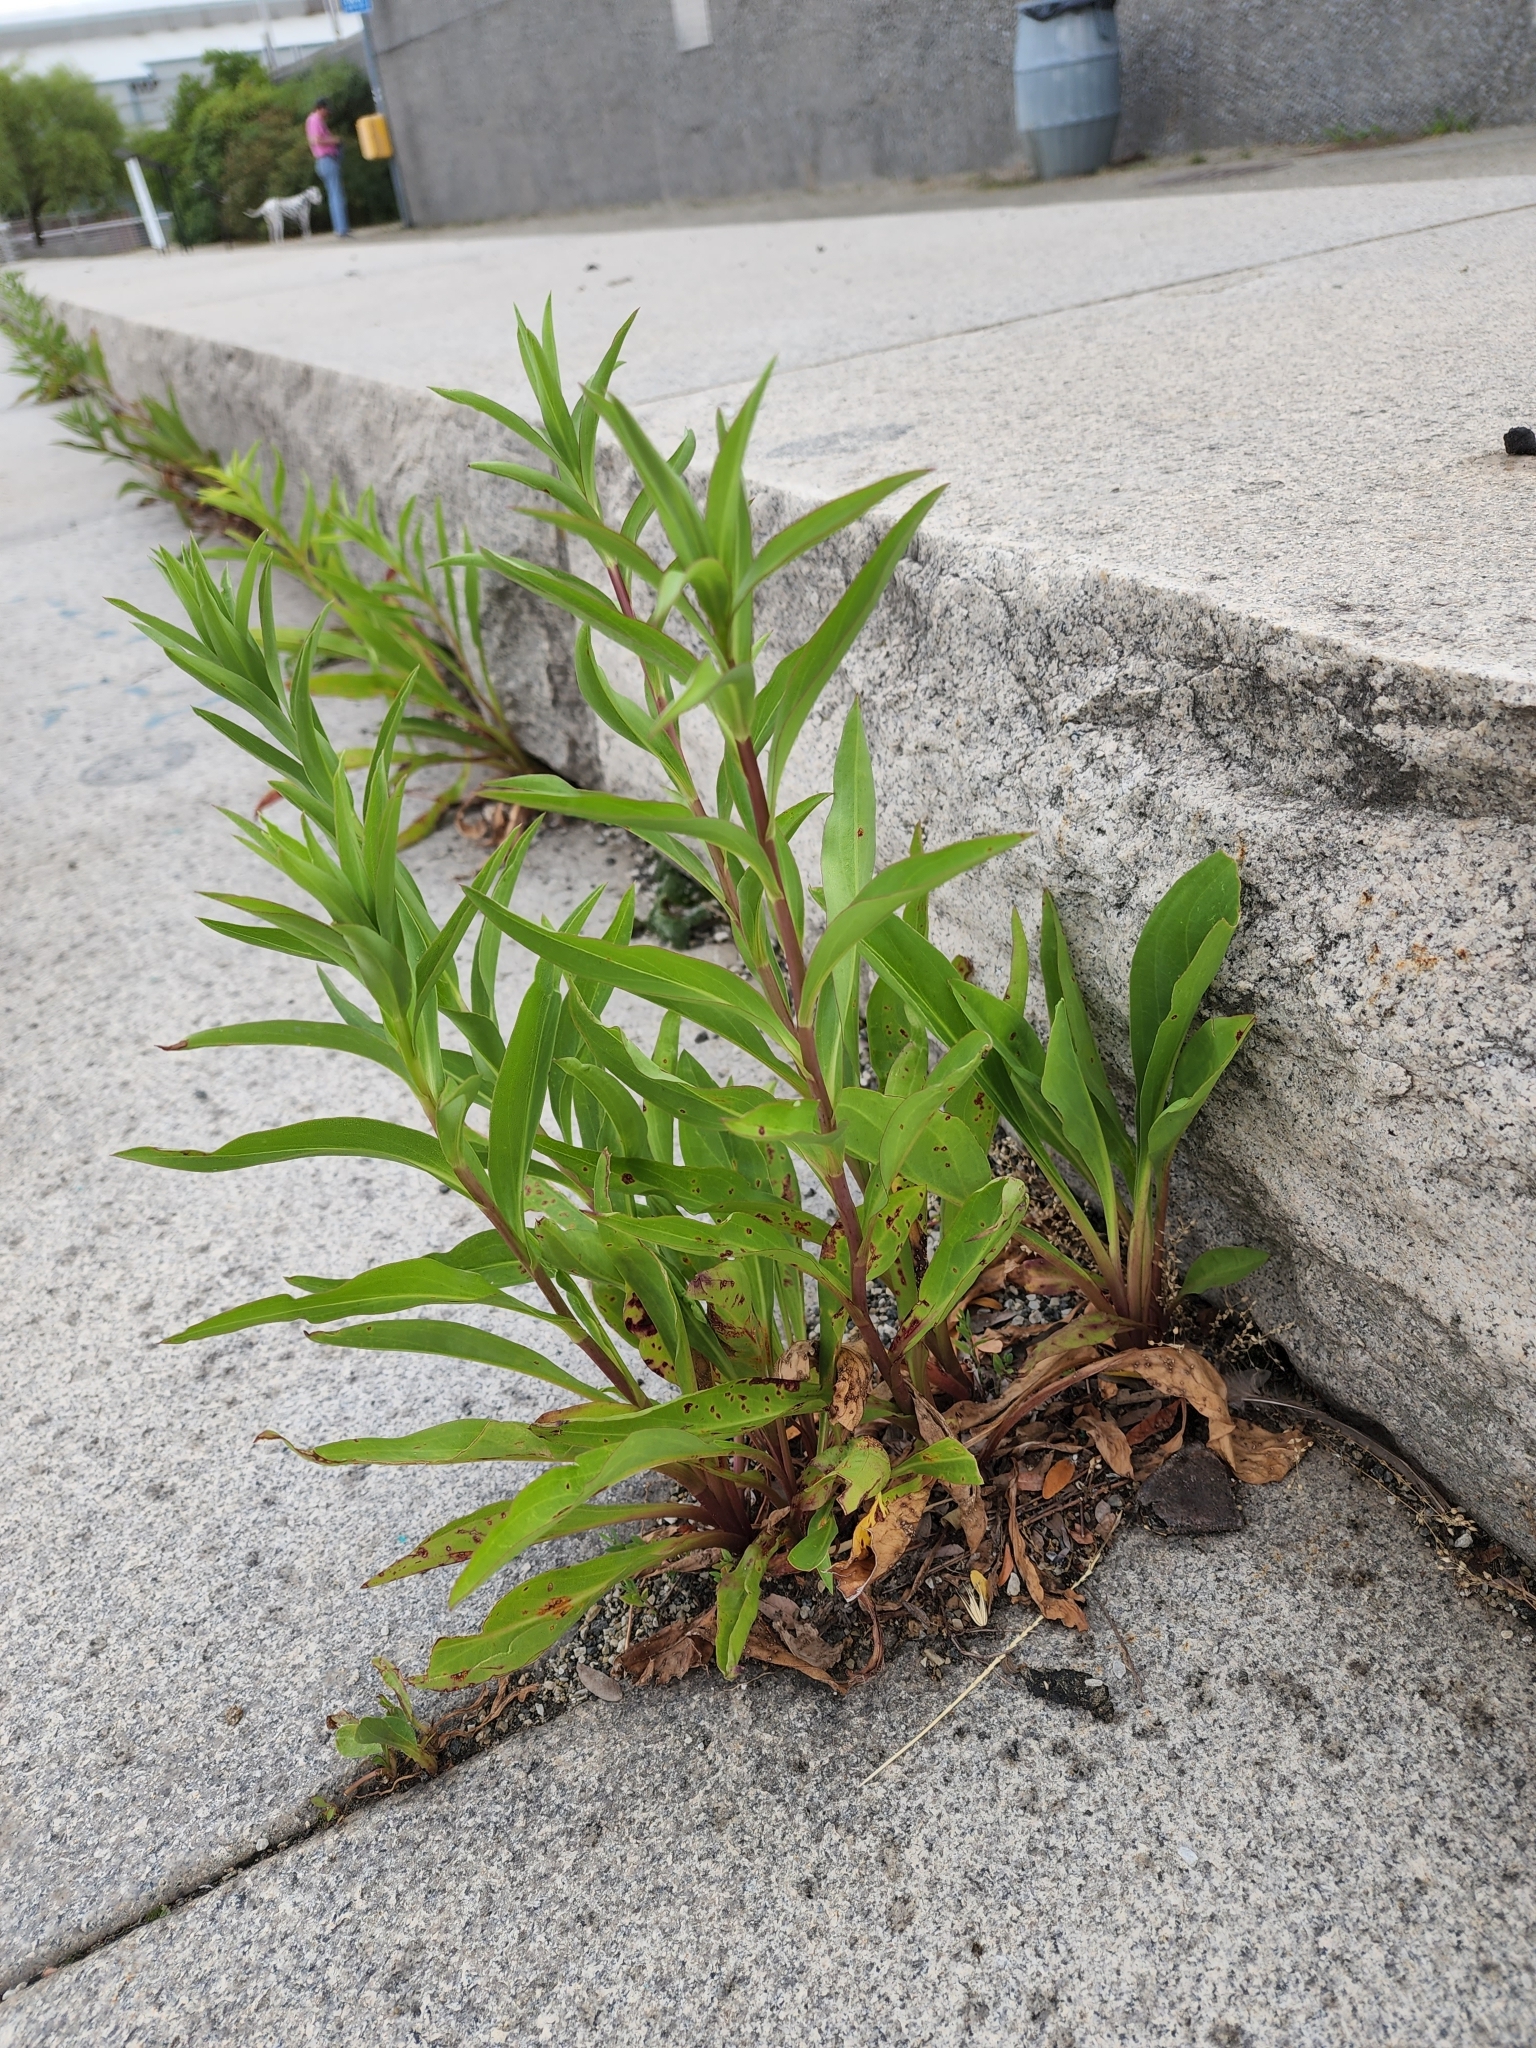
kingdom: Plantae
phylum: Tracheophyta
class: Magnoliopsida
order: Asterales
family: Asteraceae
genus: Solidago
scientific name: Solidago sempervirens
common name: Salt-marsh goldenrod
